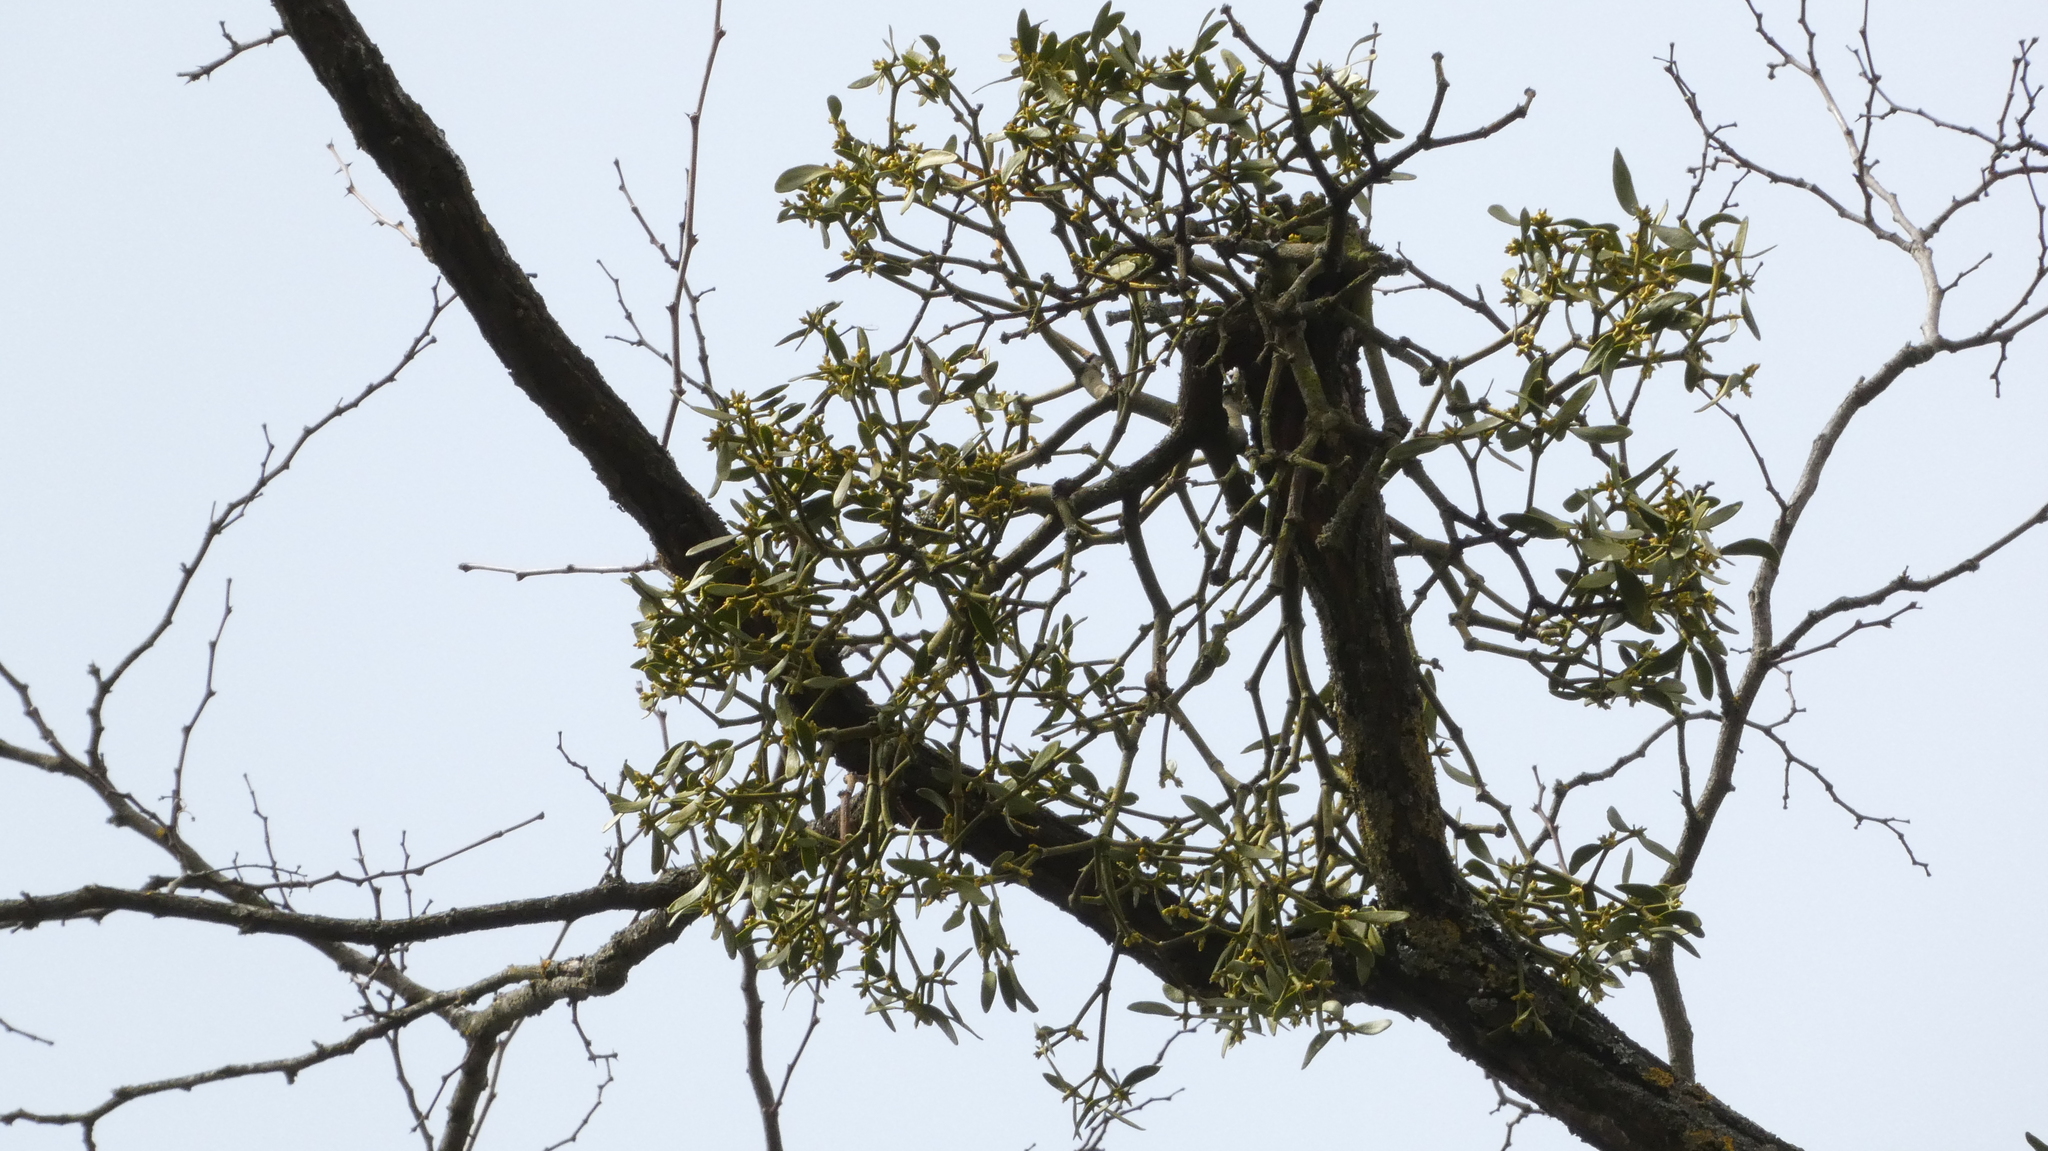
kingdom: Plantae
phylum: Tracheophyta
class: Magnoliopsida
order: Santalales
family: Viscaceae
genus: Viscum
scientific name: Viscum album
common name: Mistletoe
